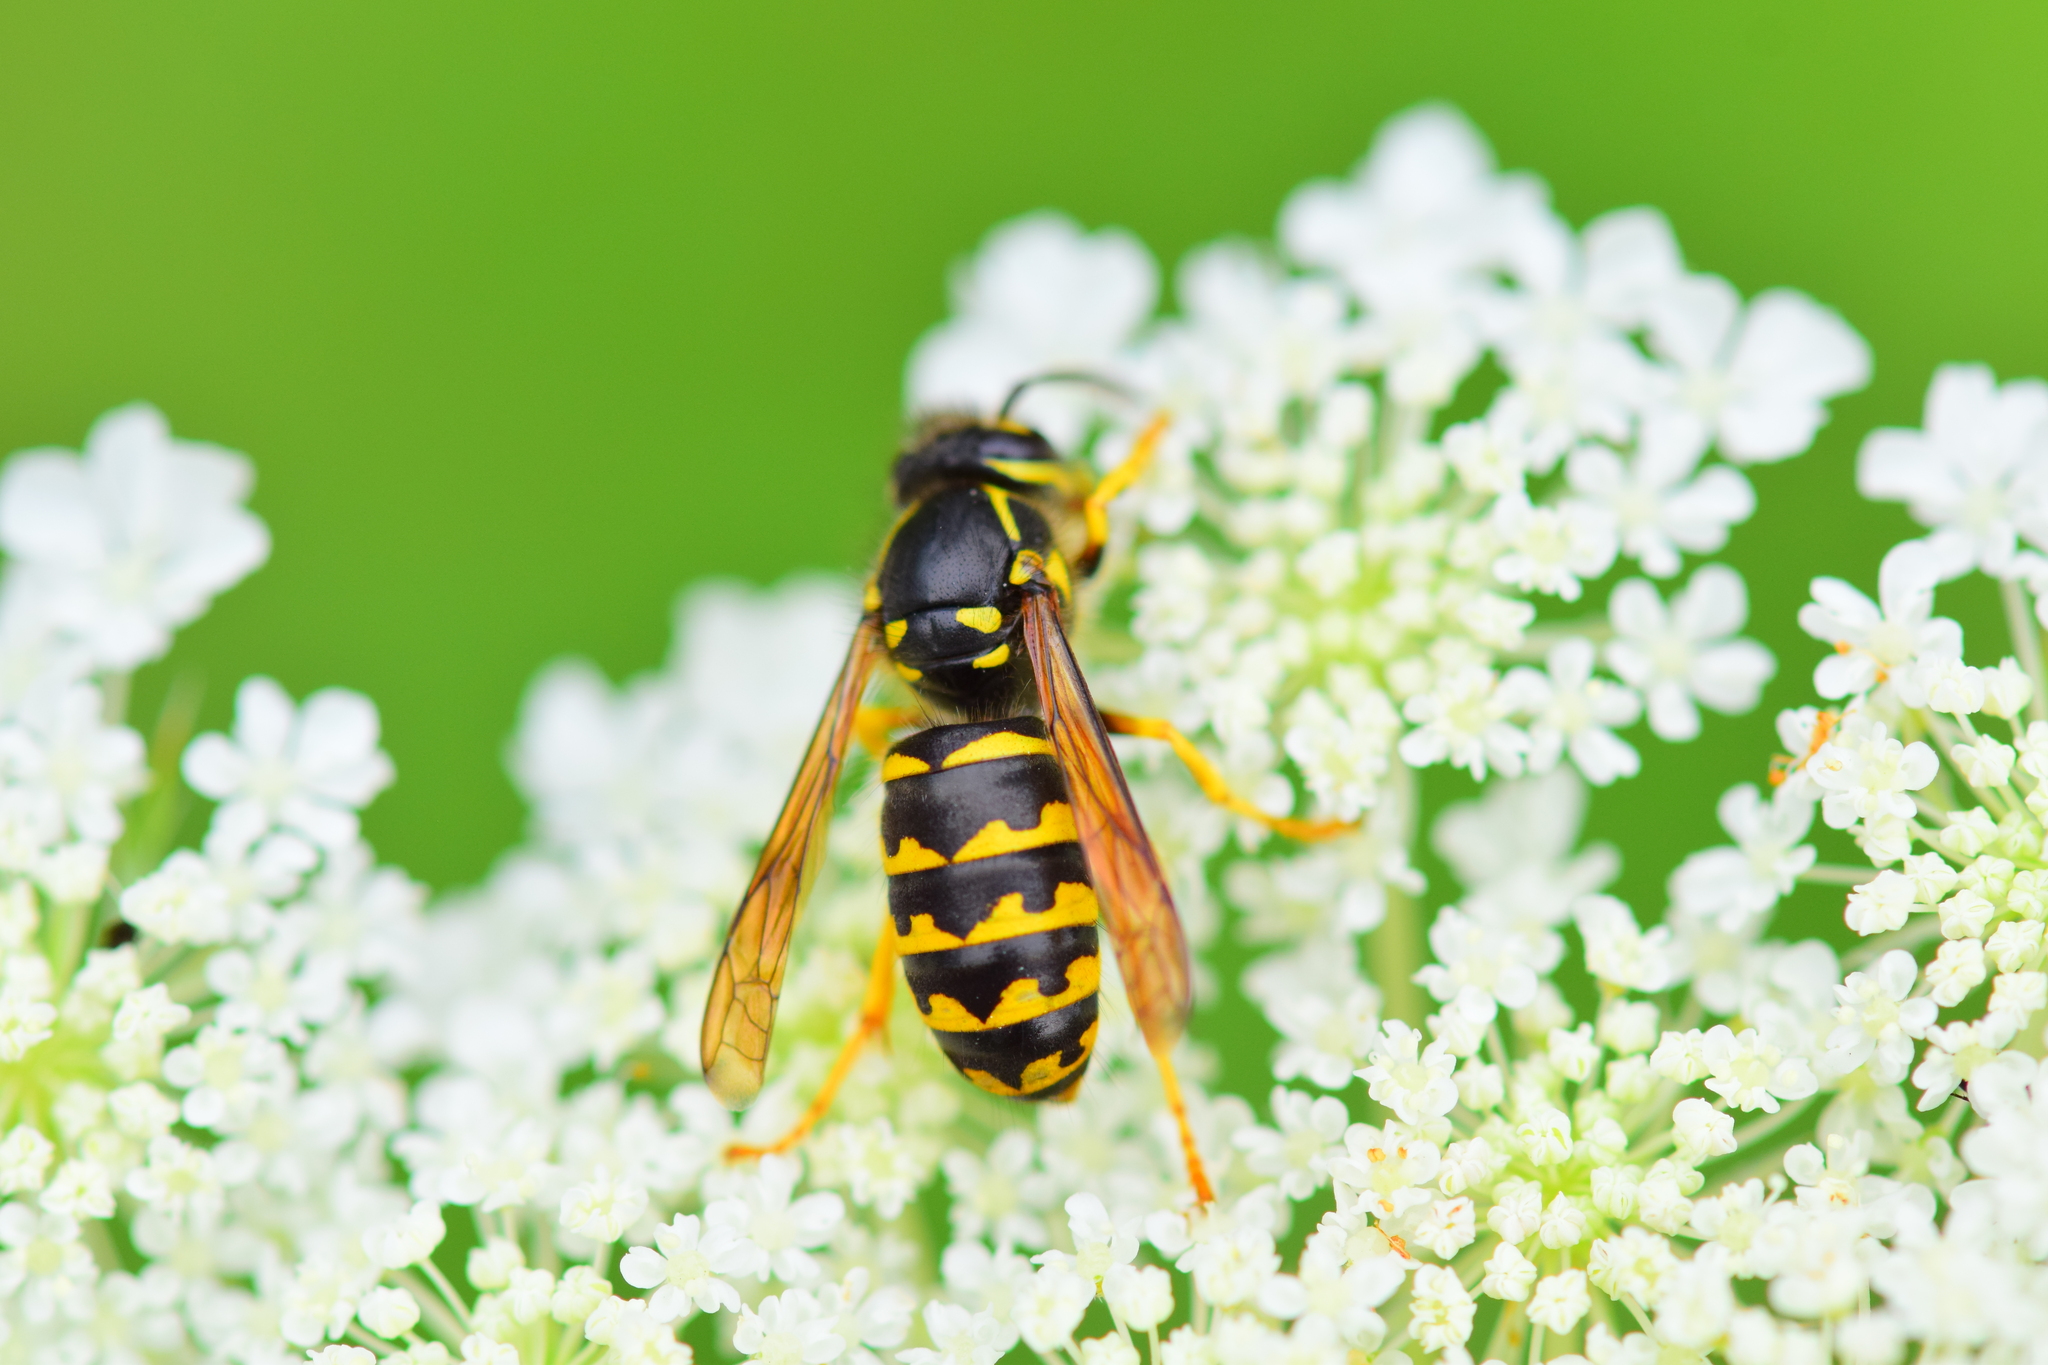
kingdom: Animalia
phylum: Arthropoda
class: Insecta
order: Hymenoptera
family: Vespidae
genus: Dolichovespula
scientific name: Dolichovespula arenaria
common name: Aerial yellowjacket
